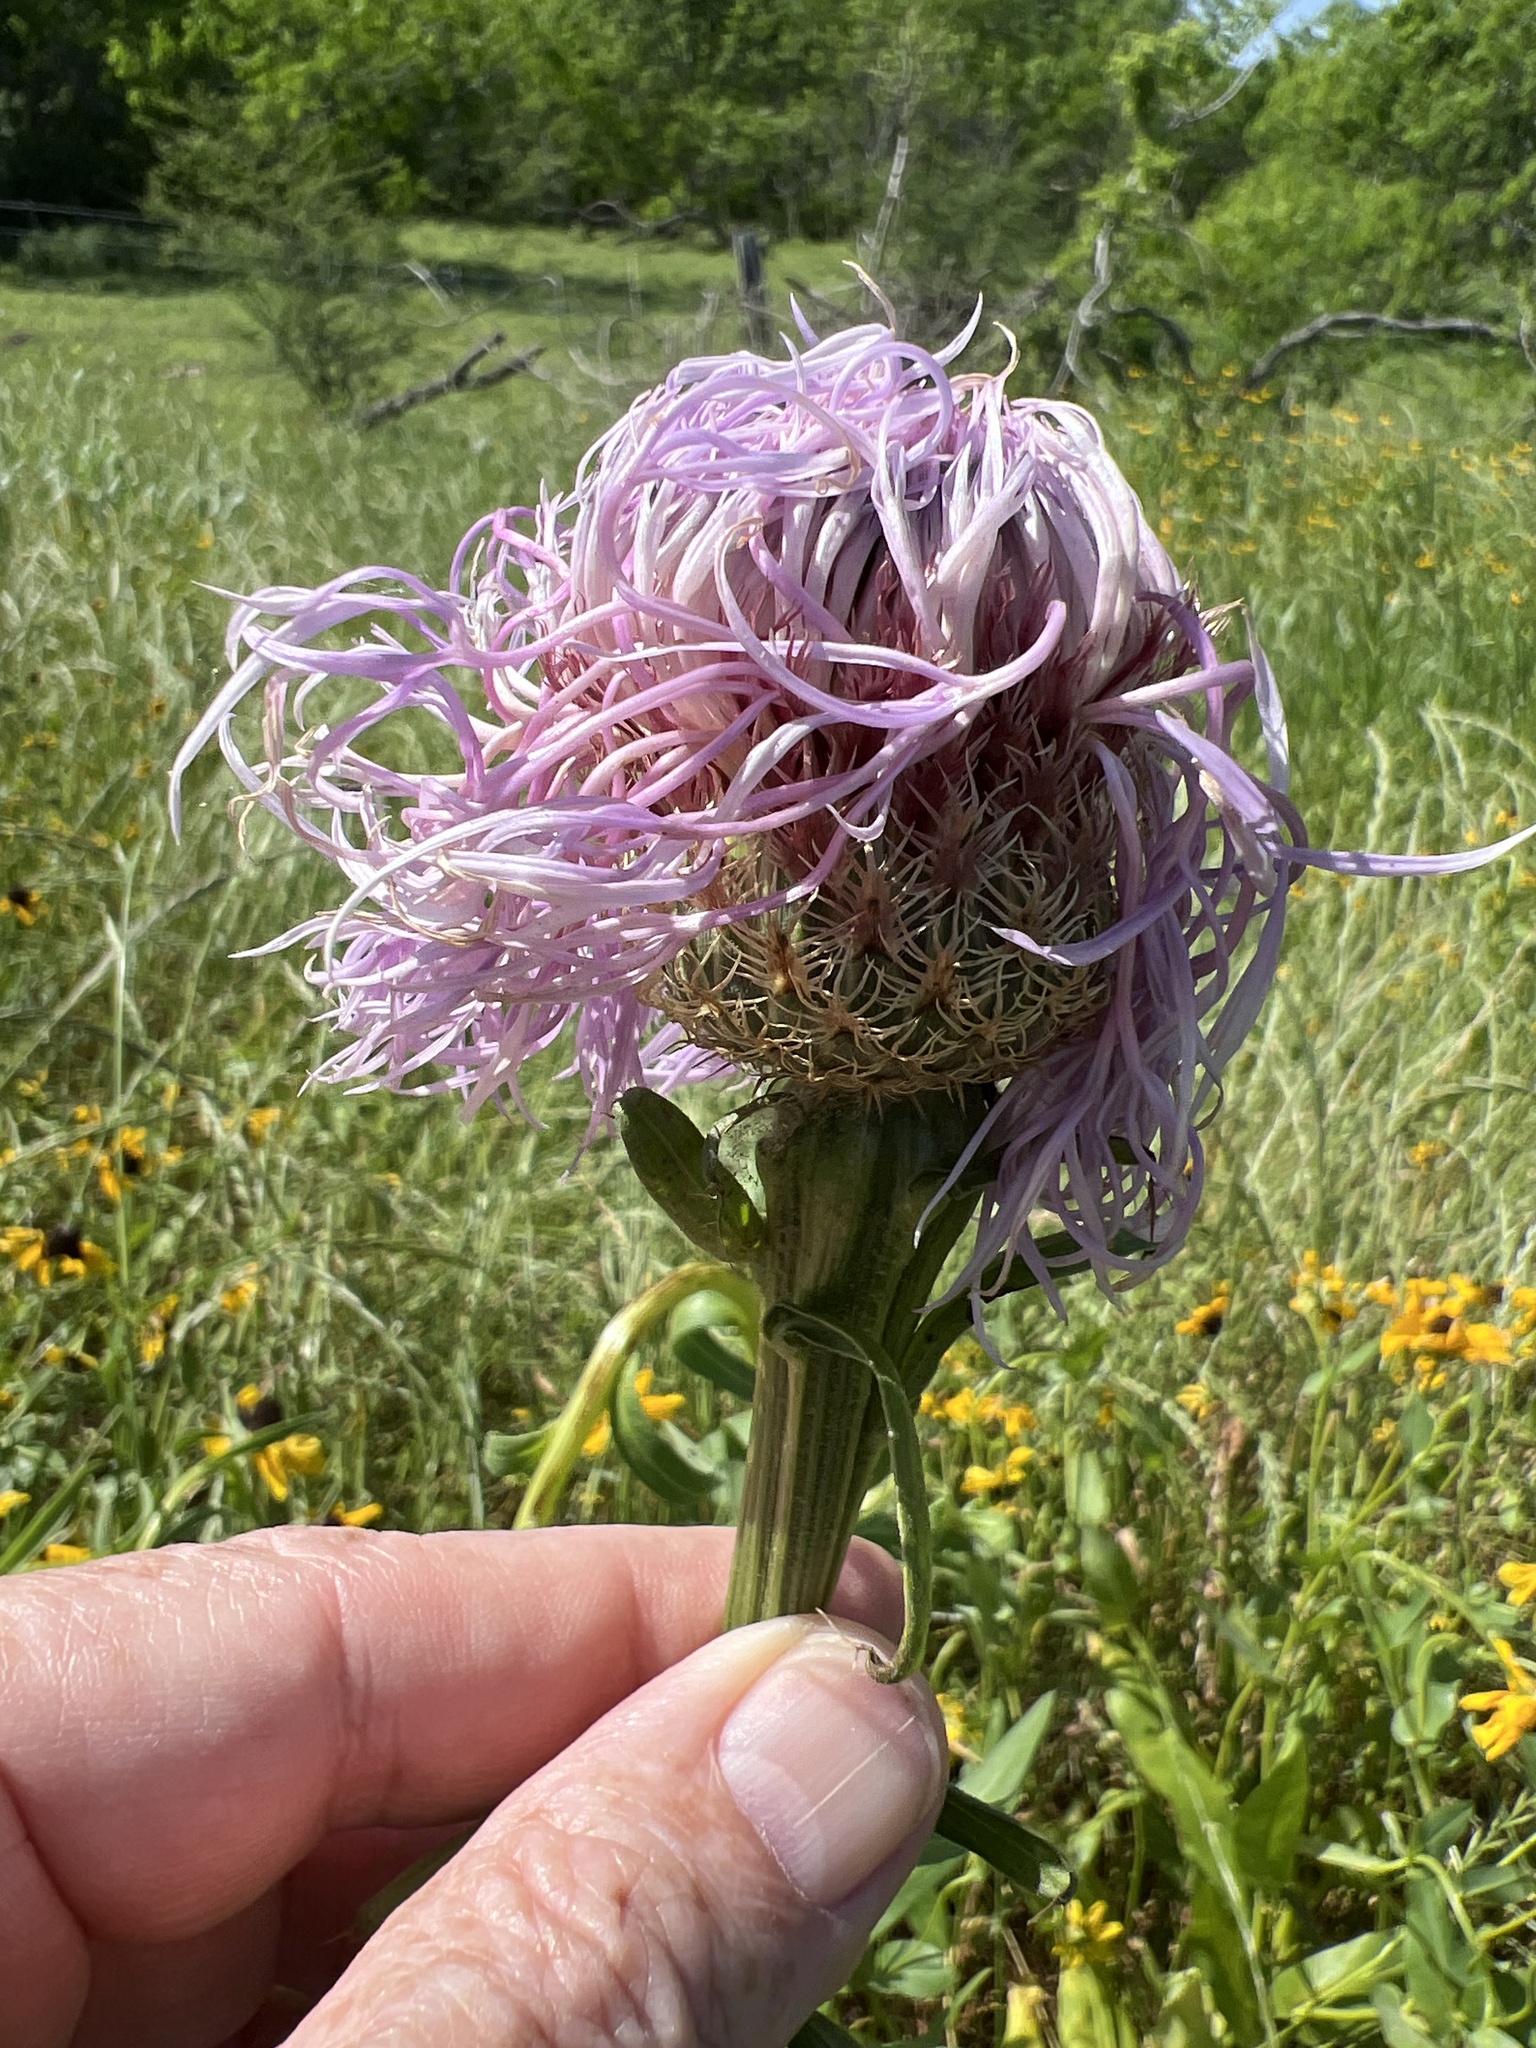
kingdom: Plantae
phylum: Tracheophyta
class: Magnoliopsida
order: Asterales
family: Asteraceae
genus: Plectocephalus
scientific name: Plectocephalus americanus
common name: American basket-flower
